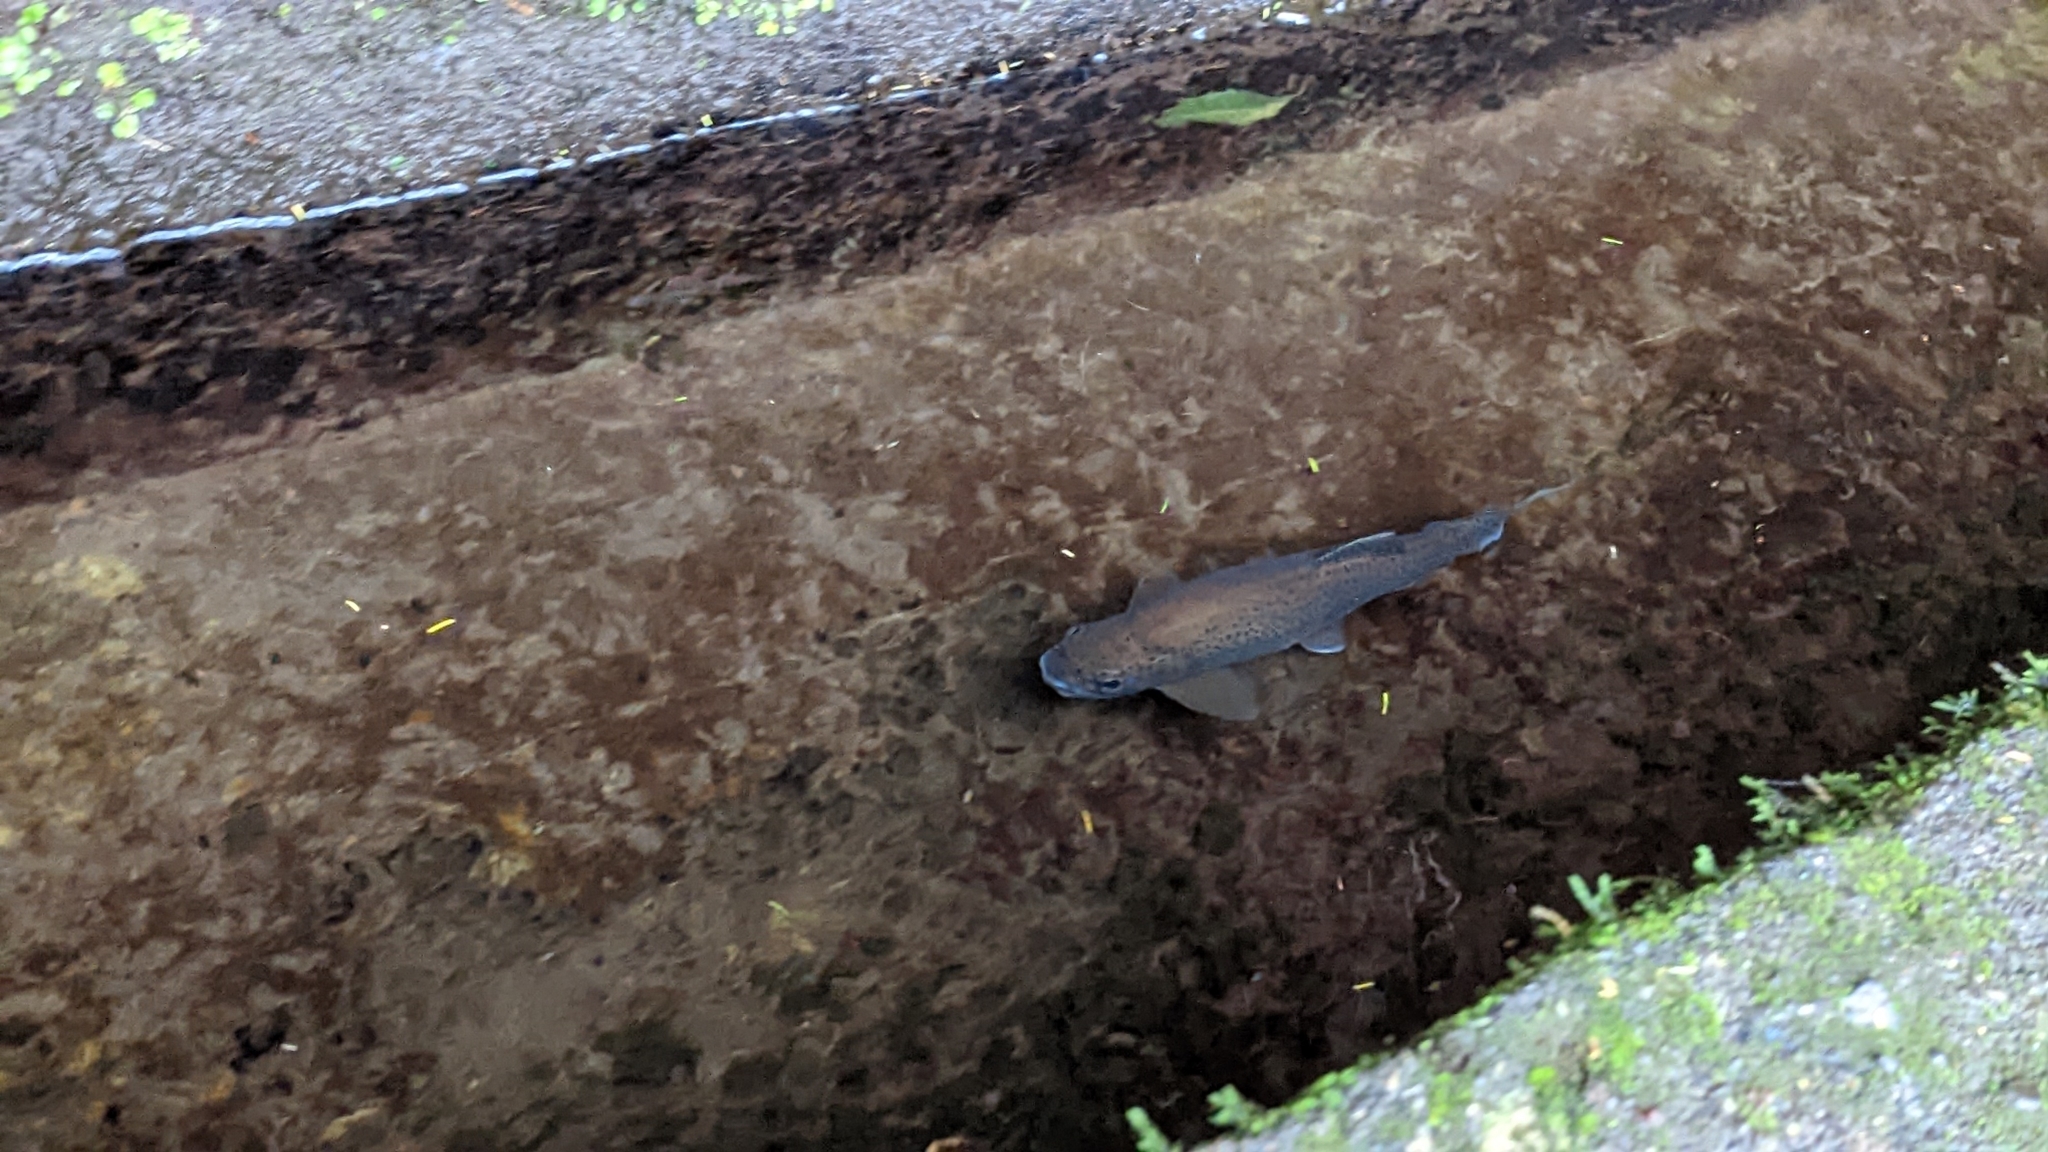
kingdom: Animalia
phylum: Chordata
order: Salmoniformes
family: Salmonidae
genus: Oncorhynchus
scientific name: Oncorhynchus mykiss
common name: Rainbow trout
